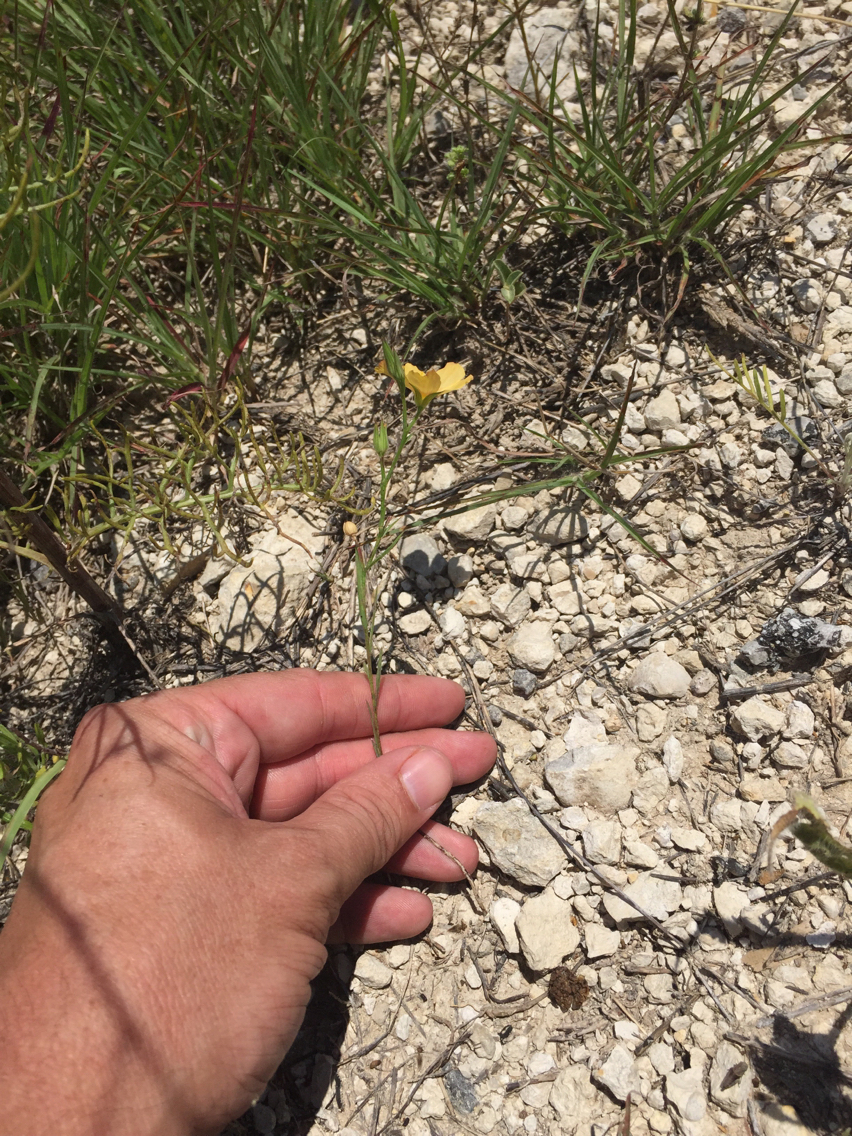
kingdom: Plantae
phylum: Tracheophyta
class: Magnoliopsida
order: Malpighiales
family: Linaceae
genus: Linum
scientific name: Linum berlandieri
